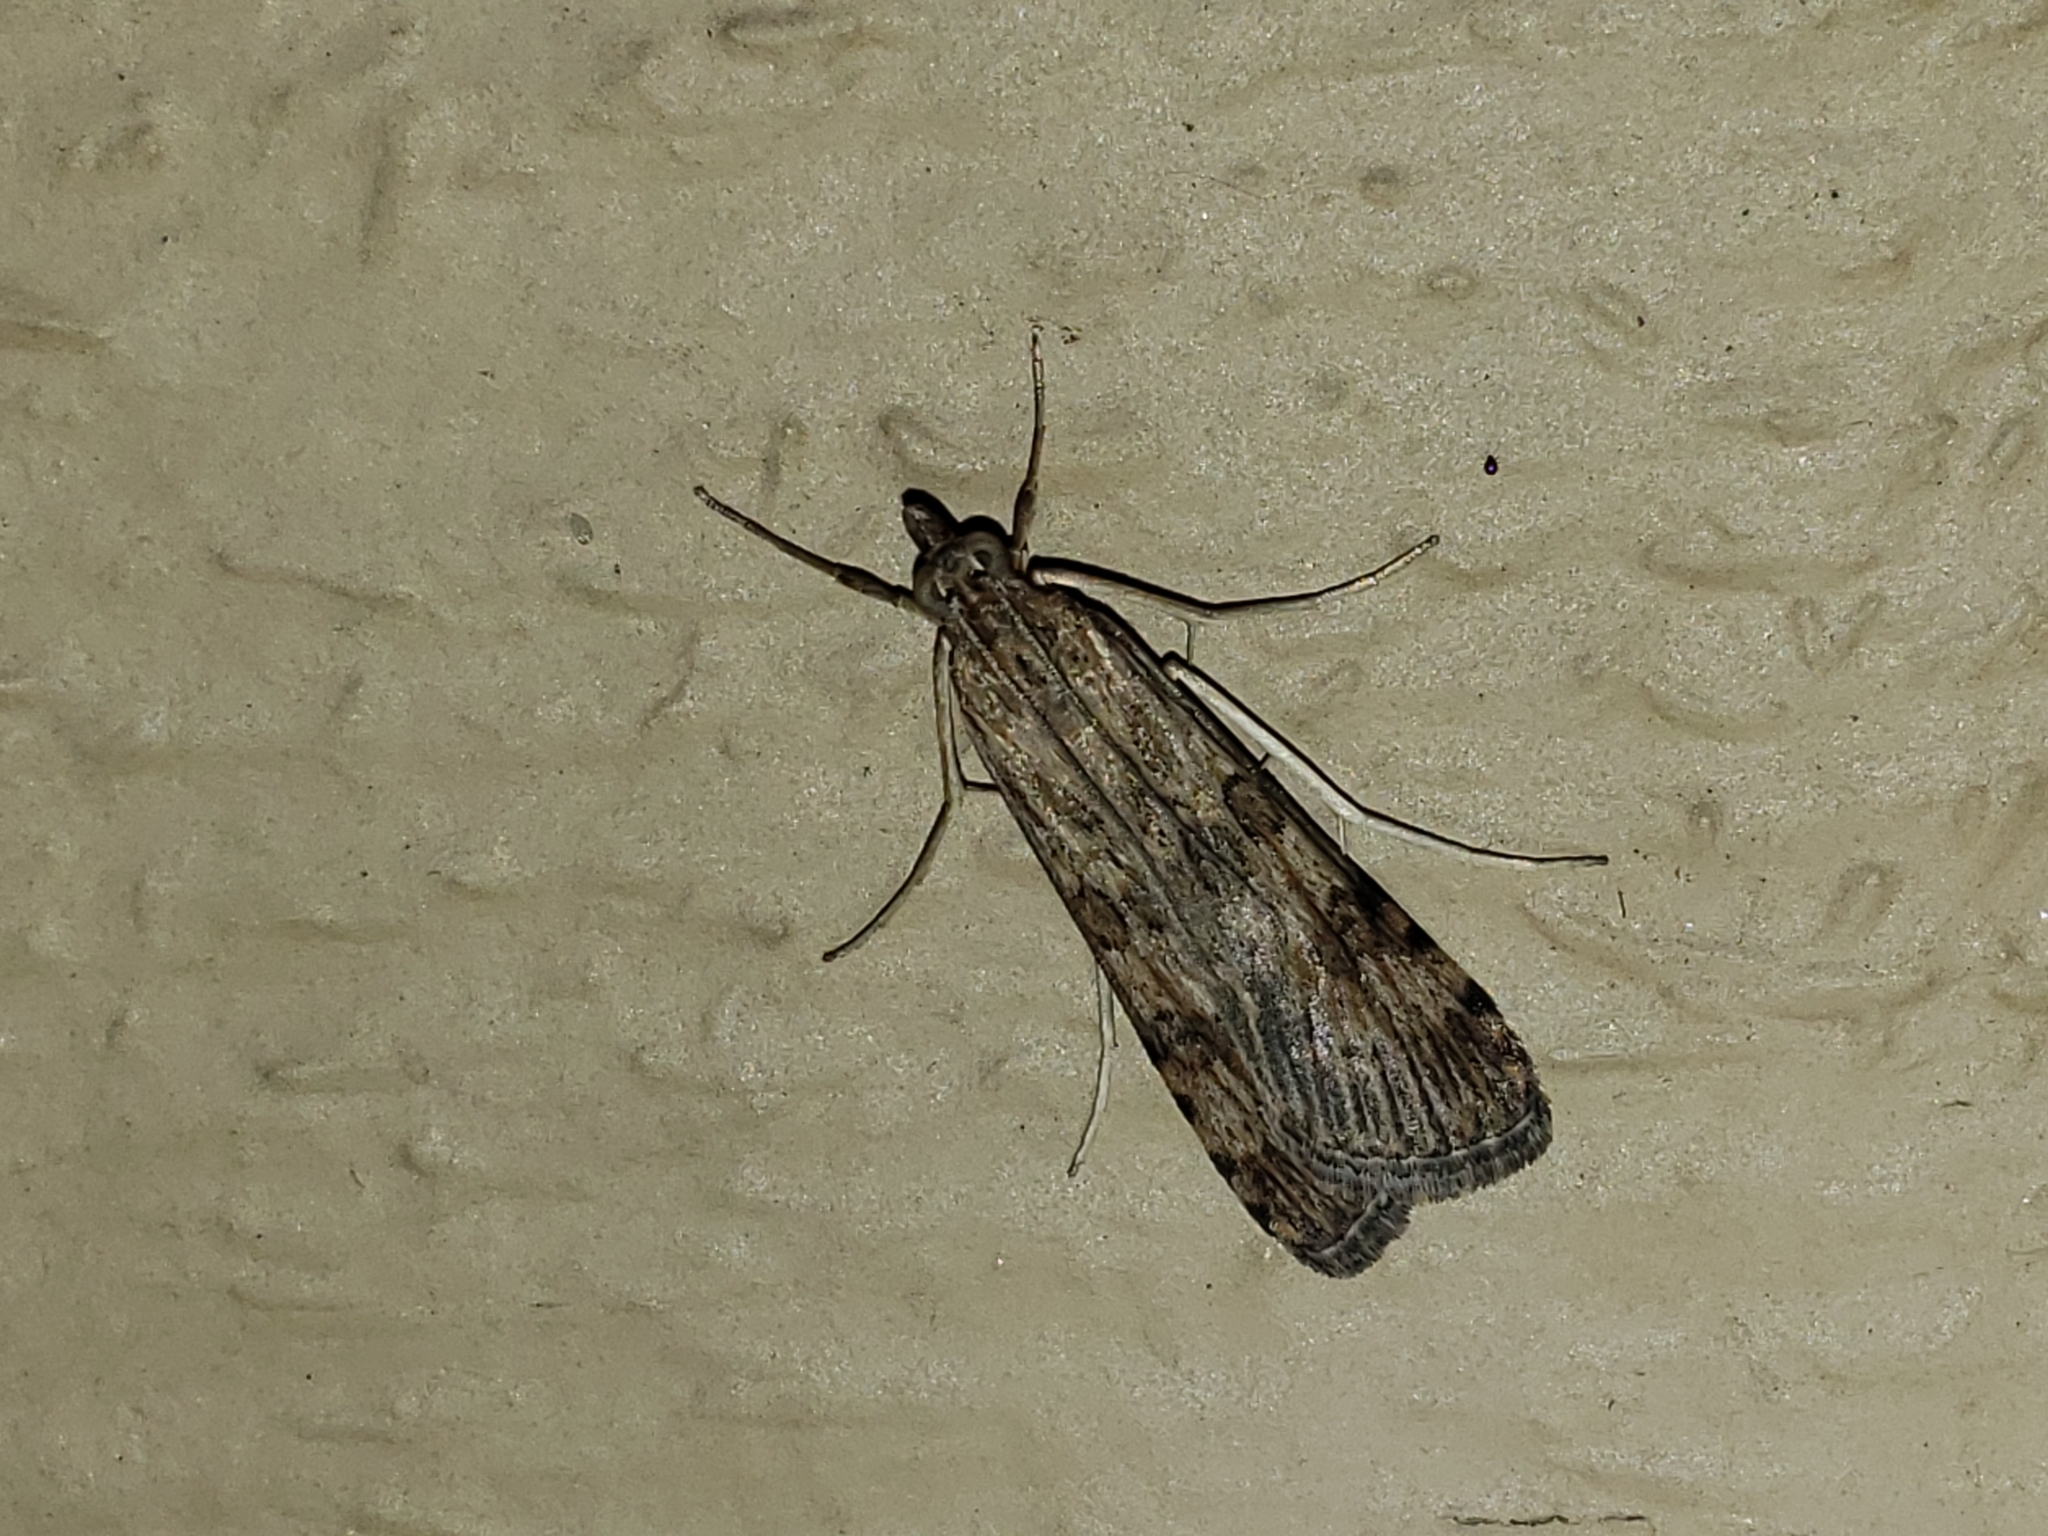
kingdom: Animalia
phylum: Arthropoda
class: Insecta
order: Lepidoptera
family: Crambidae
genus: Nomophila
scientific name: Nomophila nearctica
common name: American rush veneer
